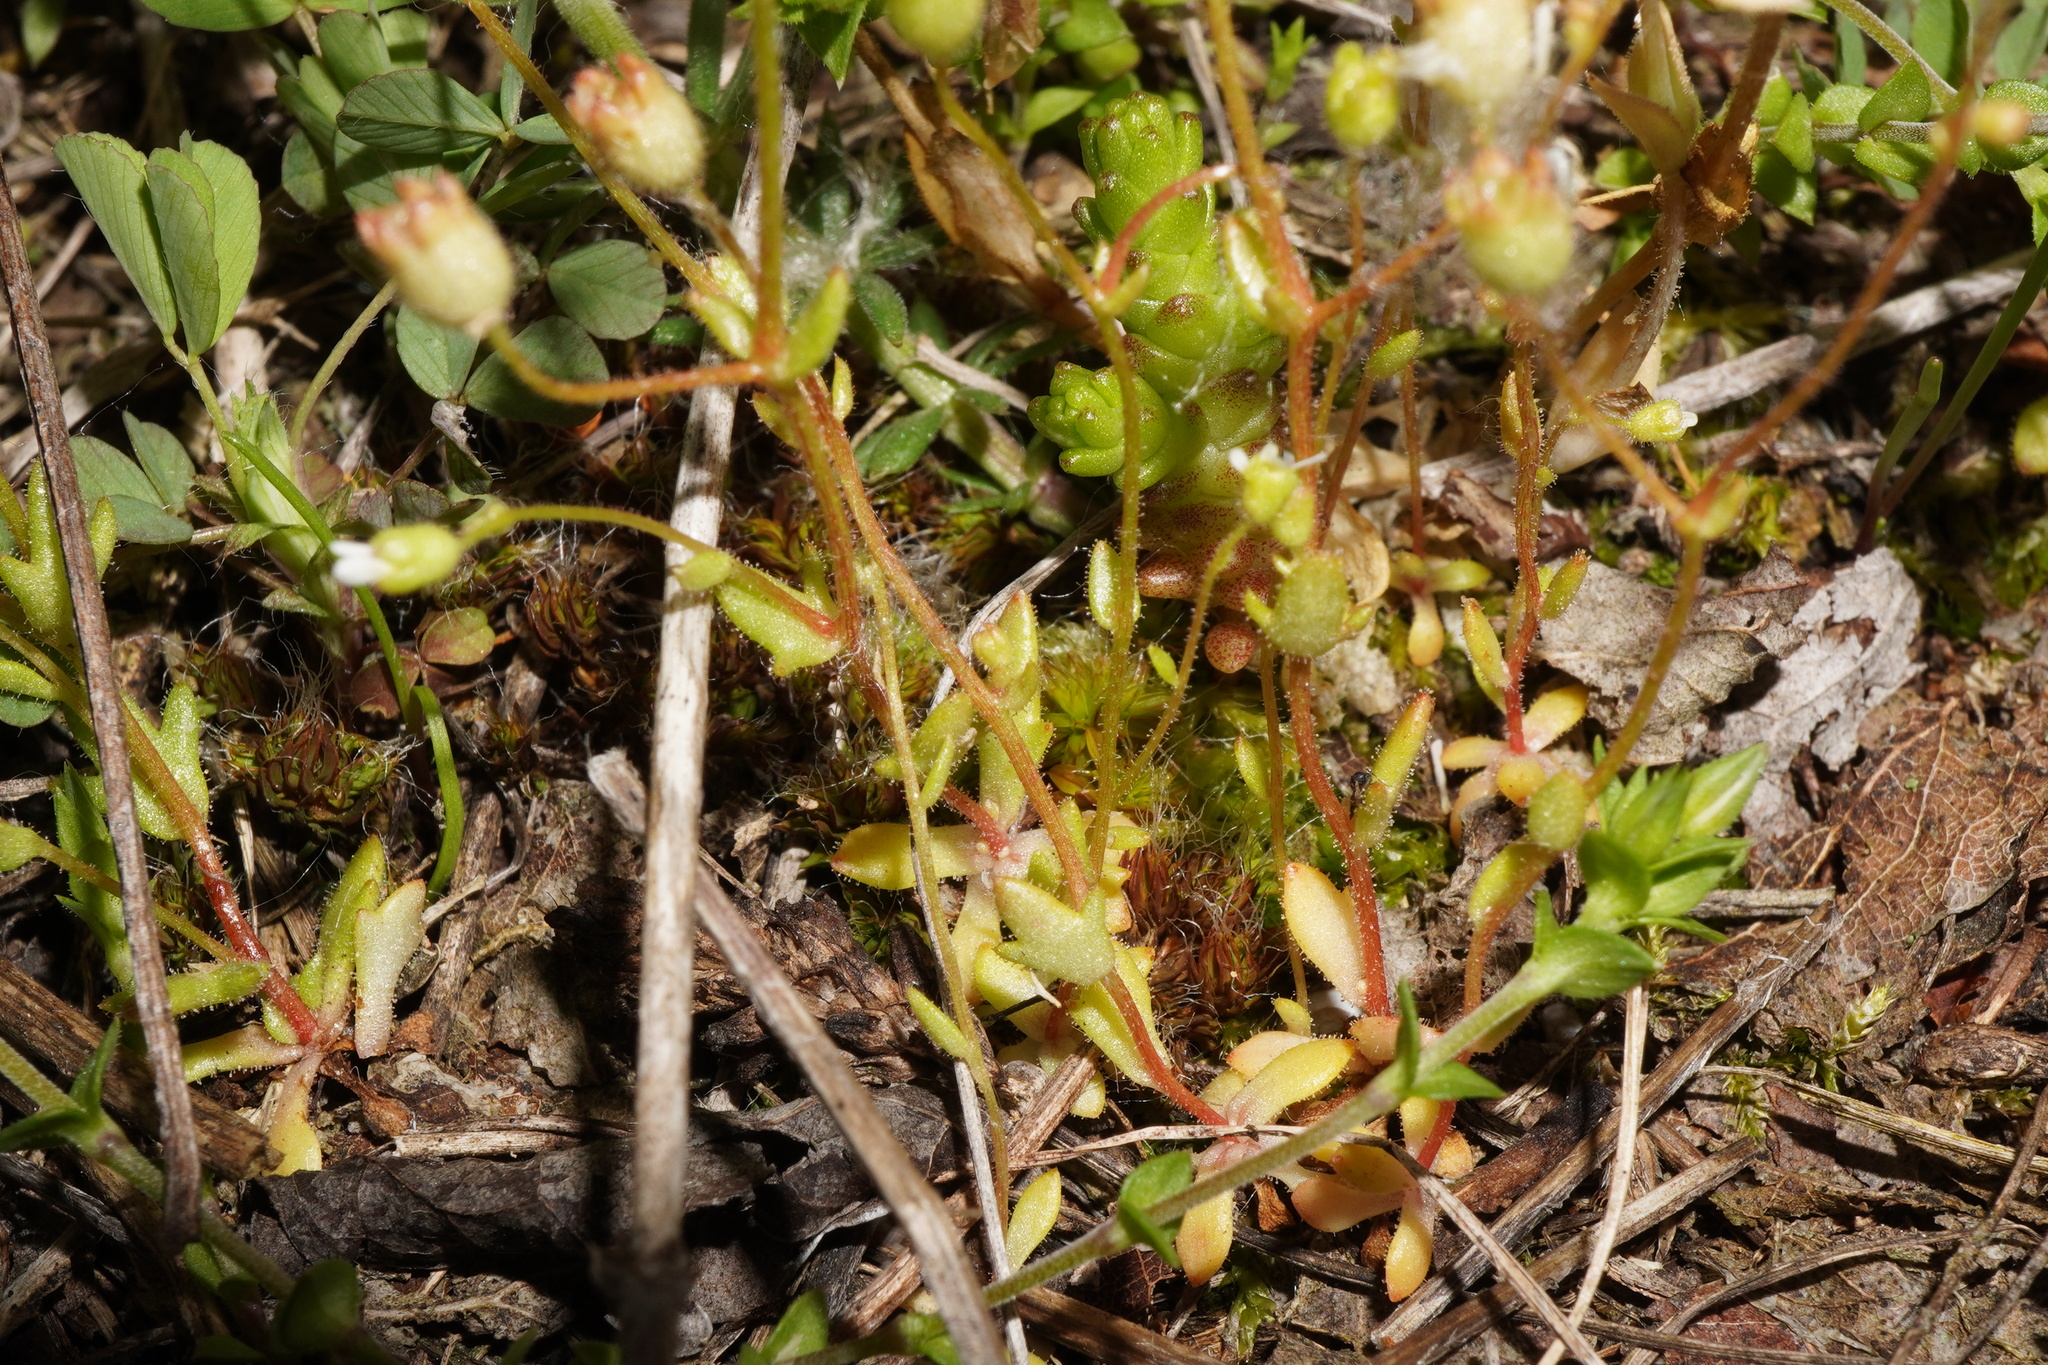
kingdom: Plantae
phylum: Tracheophyta
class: Magnoliopsida
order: Saxifragales
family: Saxifragaceae
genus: Saxifraga
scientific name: Saxifraga tridactylites
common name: Rue-leaved saxifrage
